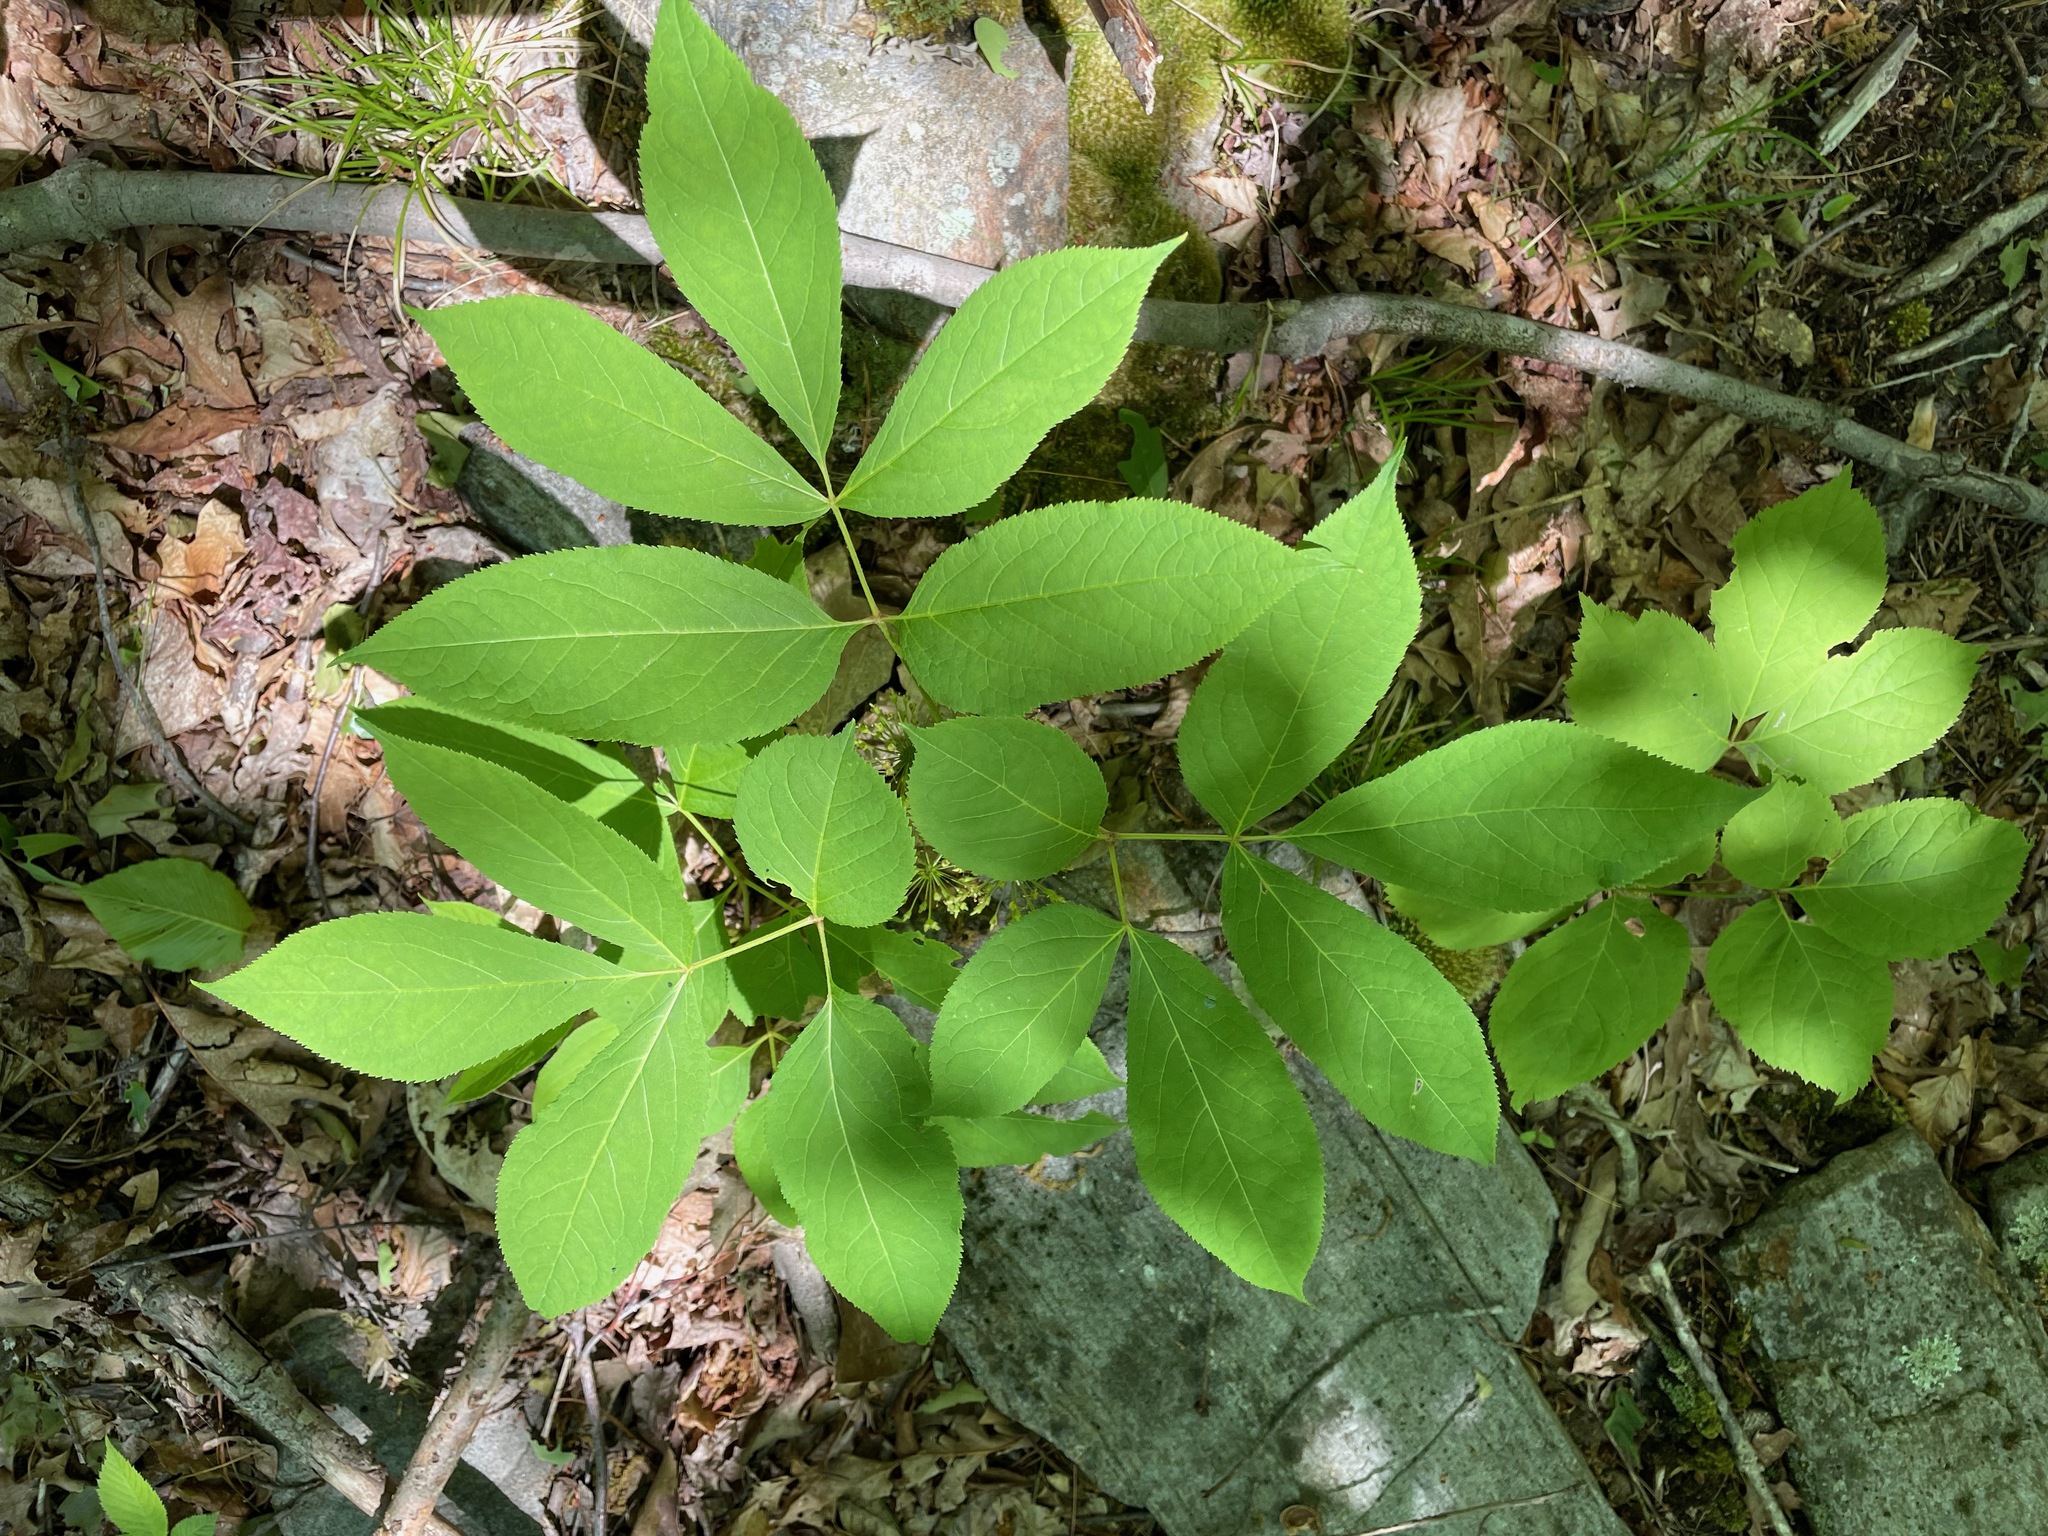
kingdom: Plantae
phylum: Tracheophyta
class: Magnoliopsida
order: Apiales
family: Araliaceae
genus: Aralia
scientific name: Aralia nudicaulis
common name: Wild sarsaparilla
